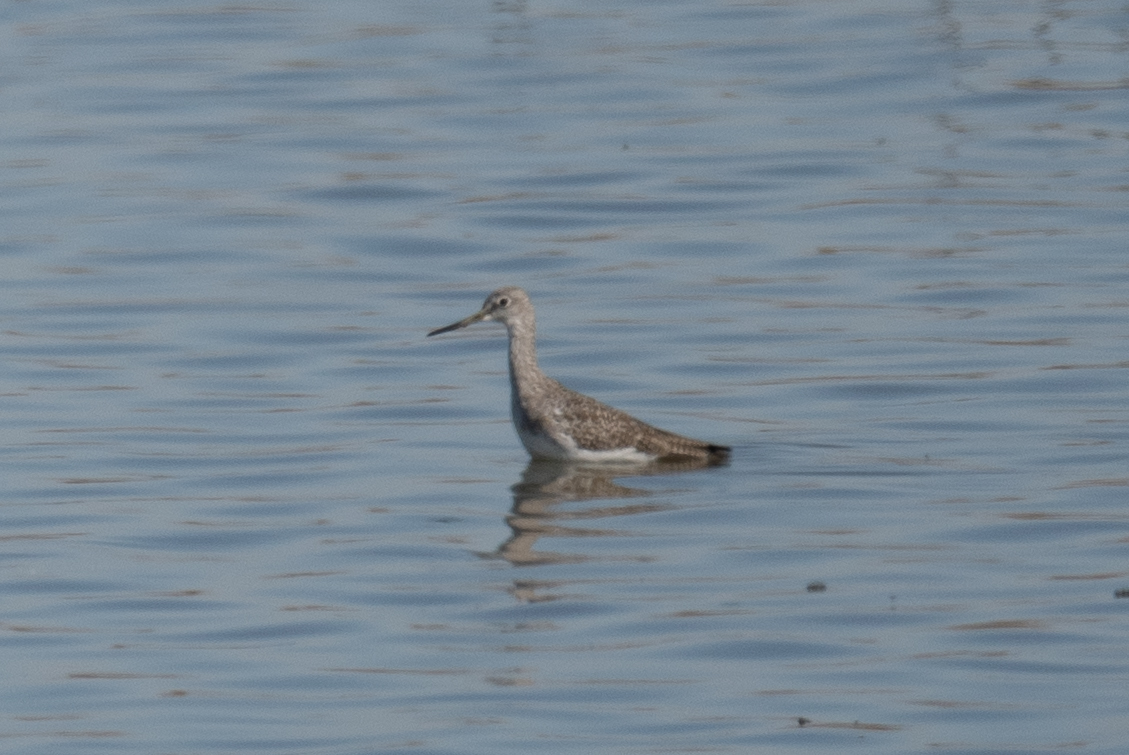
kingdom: Animalia
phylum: Chordata
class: Aves
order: Charadriiformes
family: Scolopacidae
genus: Tringa
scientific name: Tringa melanoleuca
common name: Greater yellowlegs
